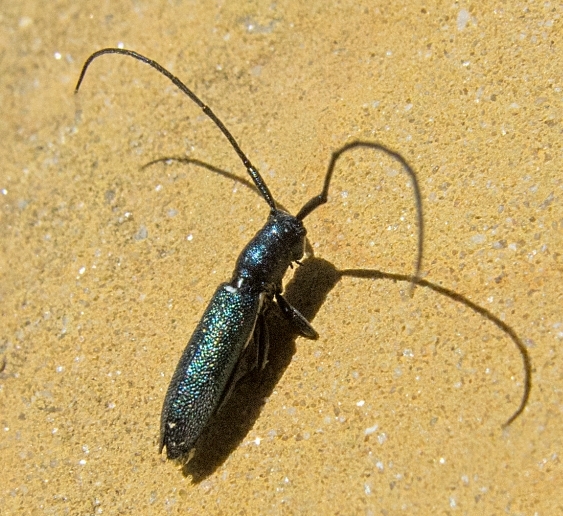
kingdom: Animalia
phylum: Arthropoda
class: Insecta
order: Coleoptera
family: Cerambycidae
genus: Agapanthiola
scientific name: Agapanthiola leucaspis
